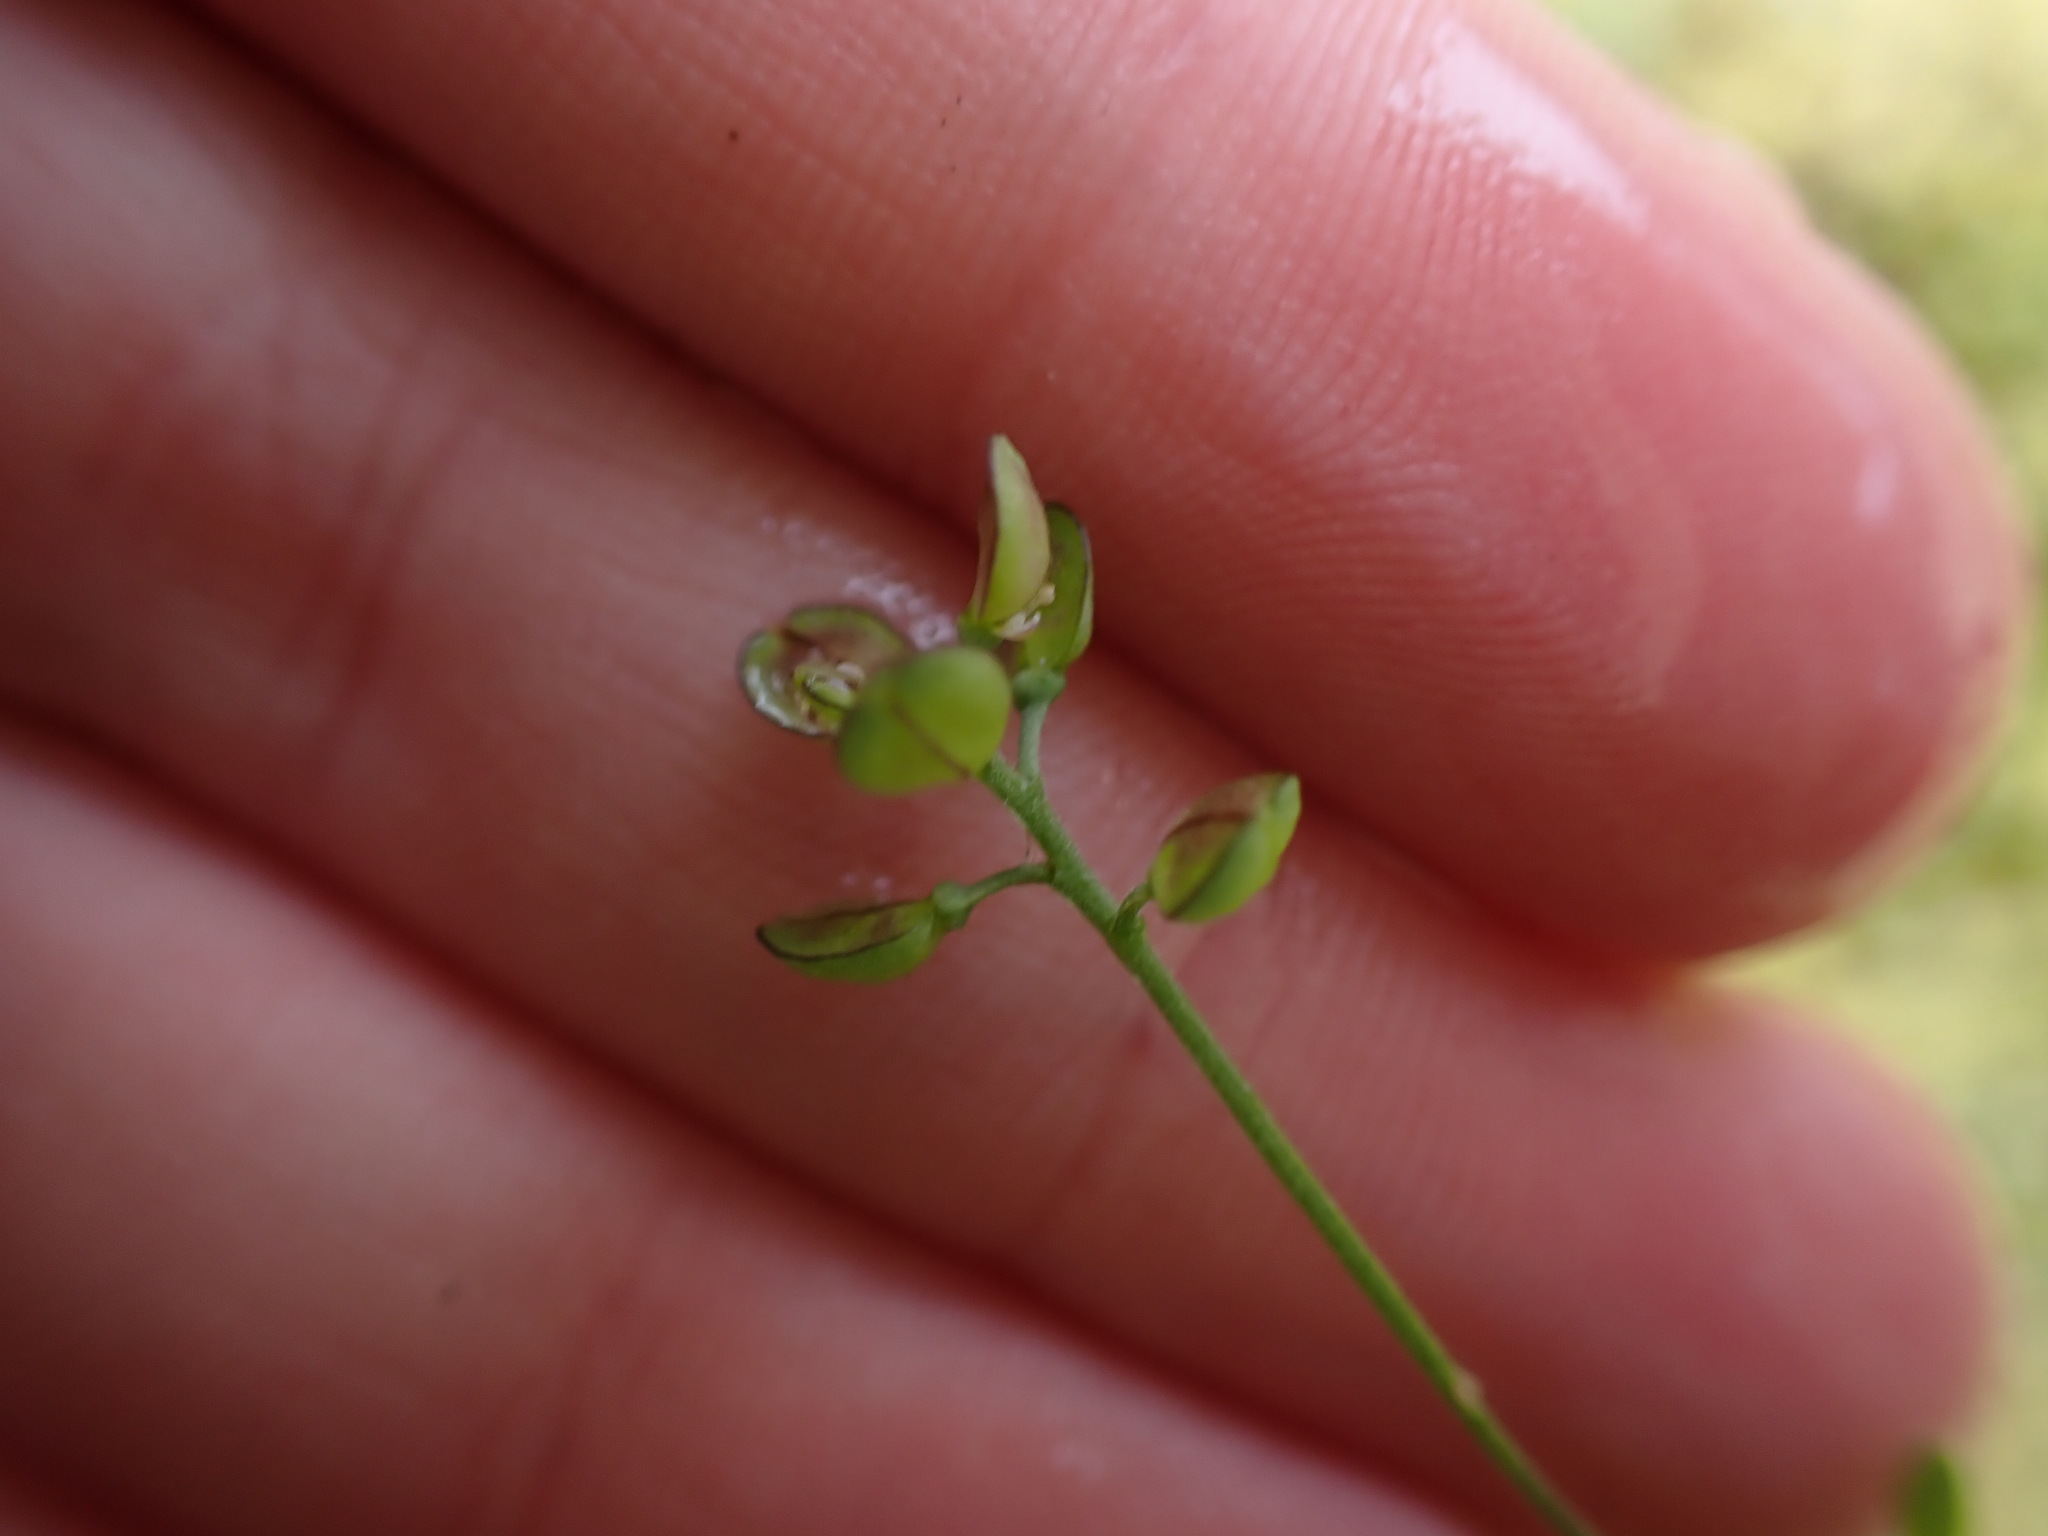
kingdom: Plantae
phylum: Tracheophyta
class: Magnoliopsida
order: Brassicales
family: Brassicaceae
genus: Teesdalia
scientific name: Teesdalia nudicaulis
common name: Shepherd's cress
